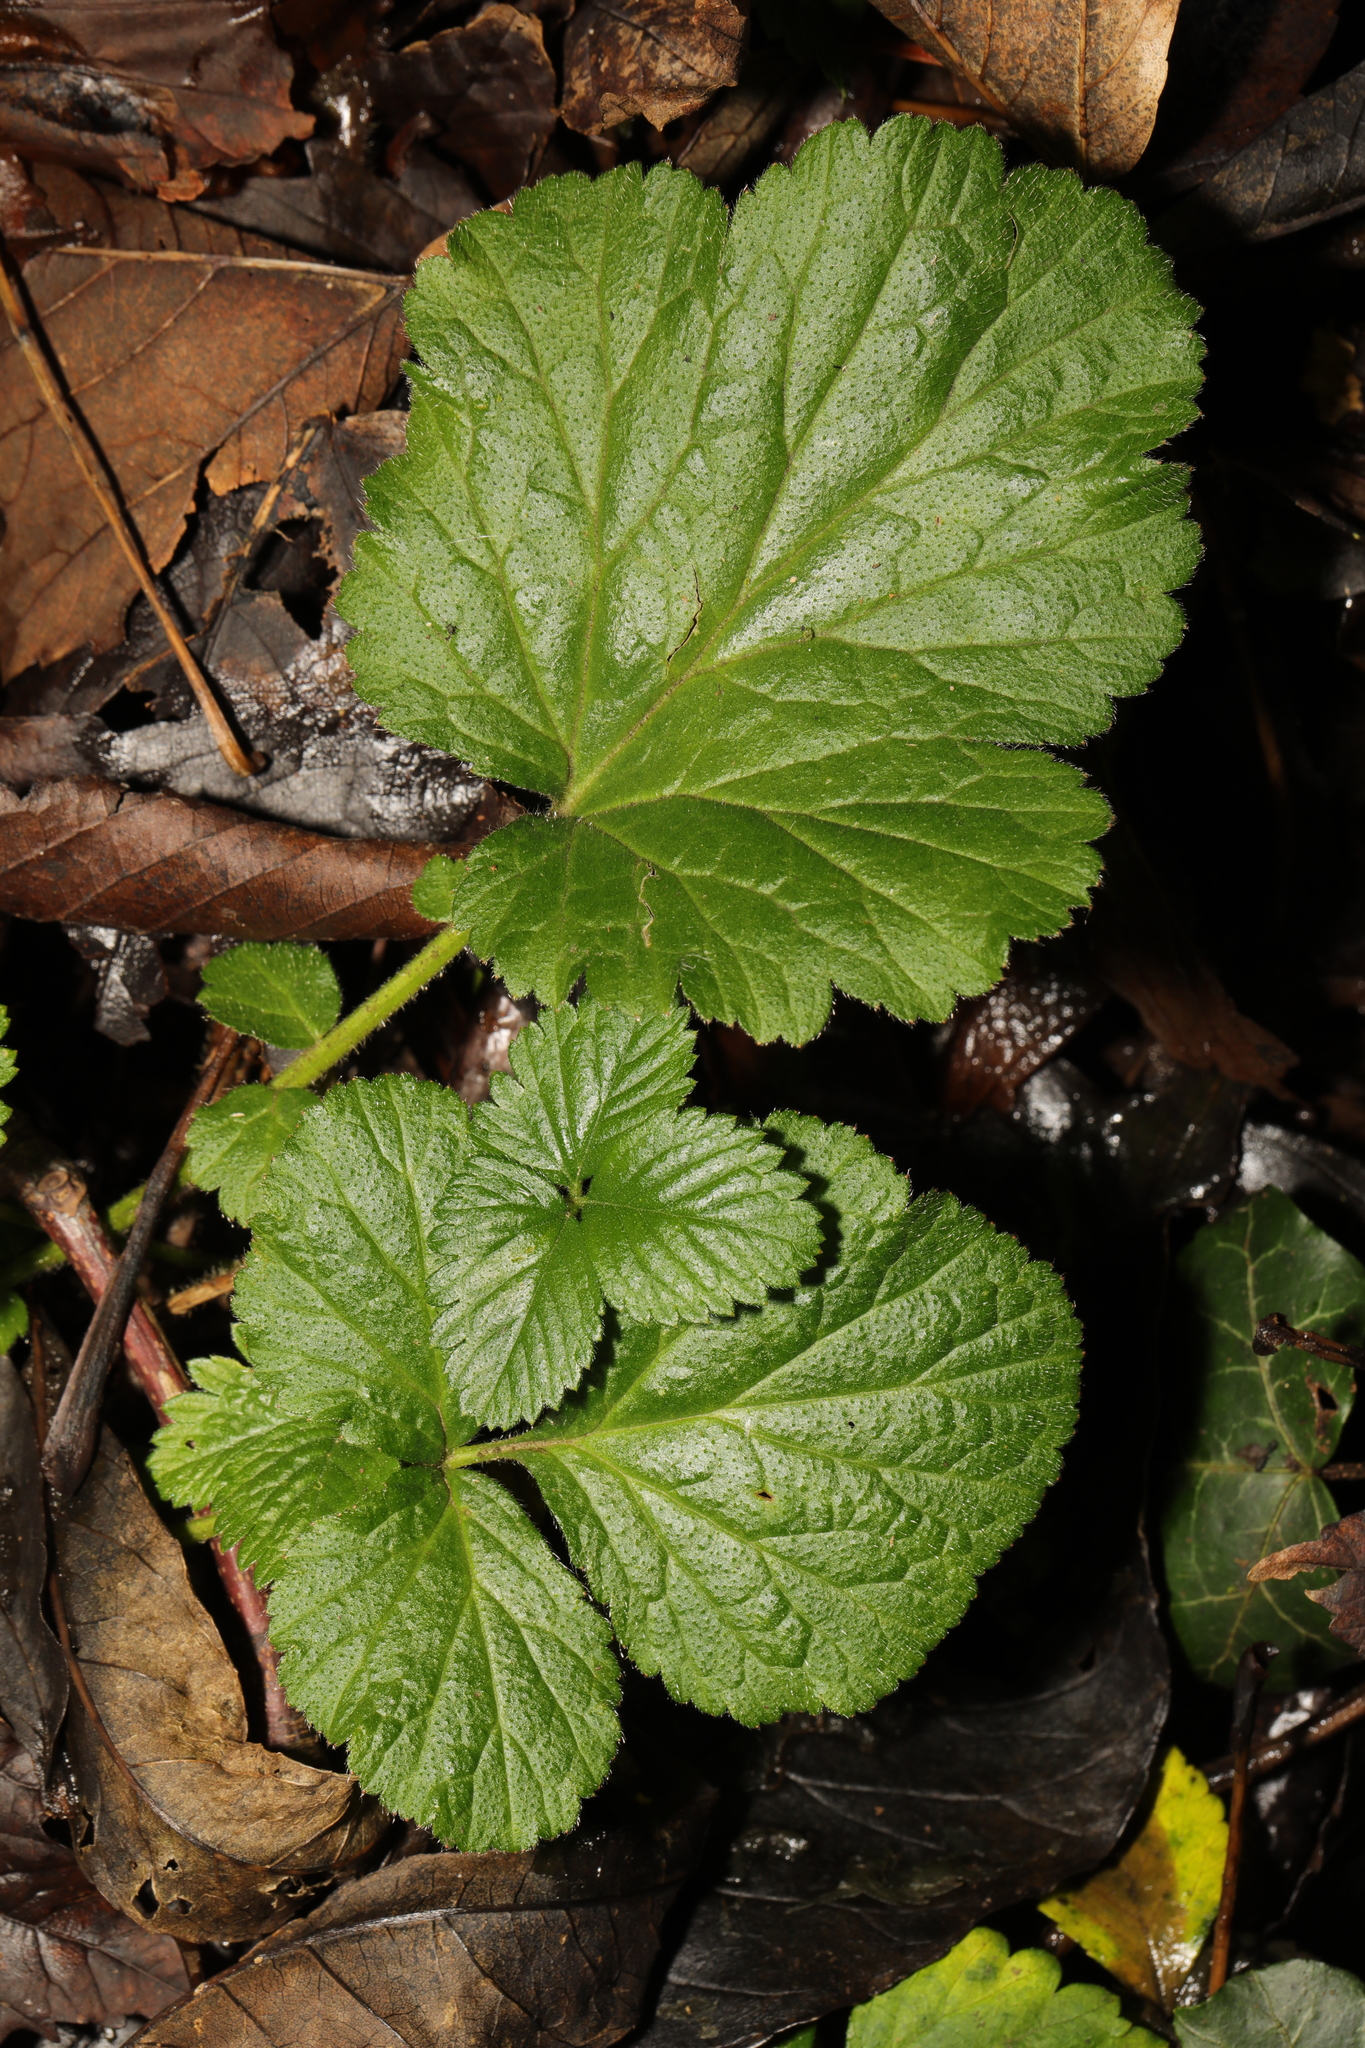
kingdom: Plantae
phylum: Tracheophyta
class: Magnoliopsida
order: Rosales
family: Rosaceae
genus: Geum
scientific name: Geum urbanum
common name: Wood avens
